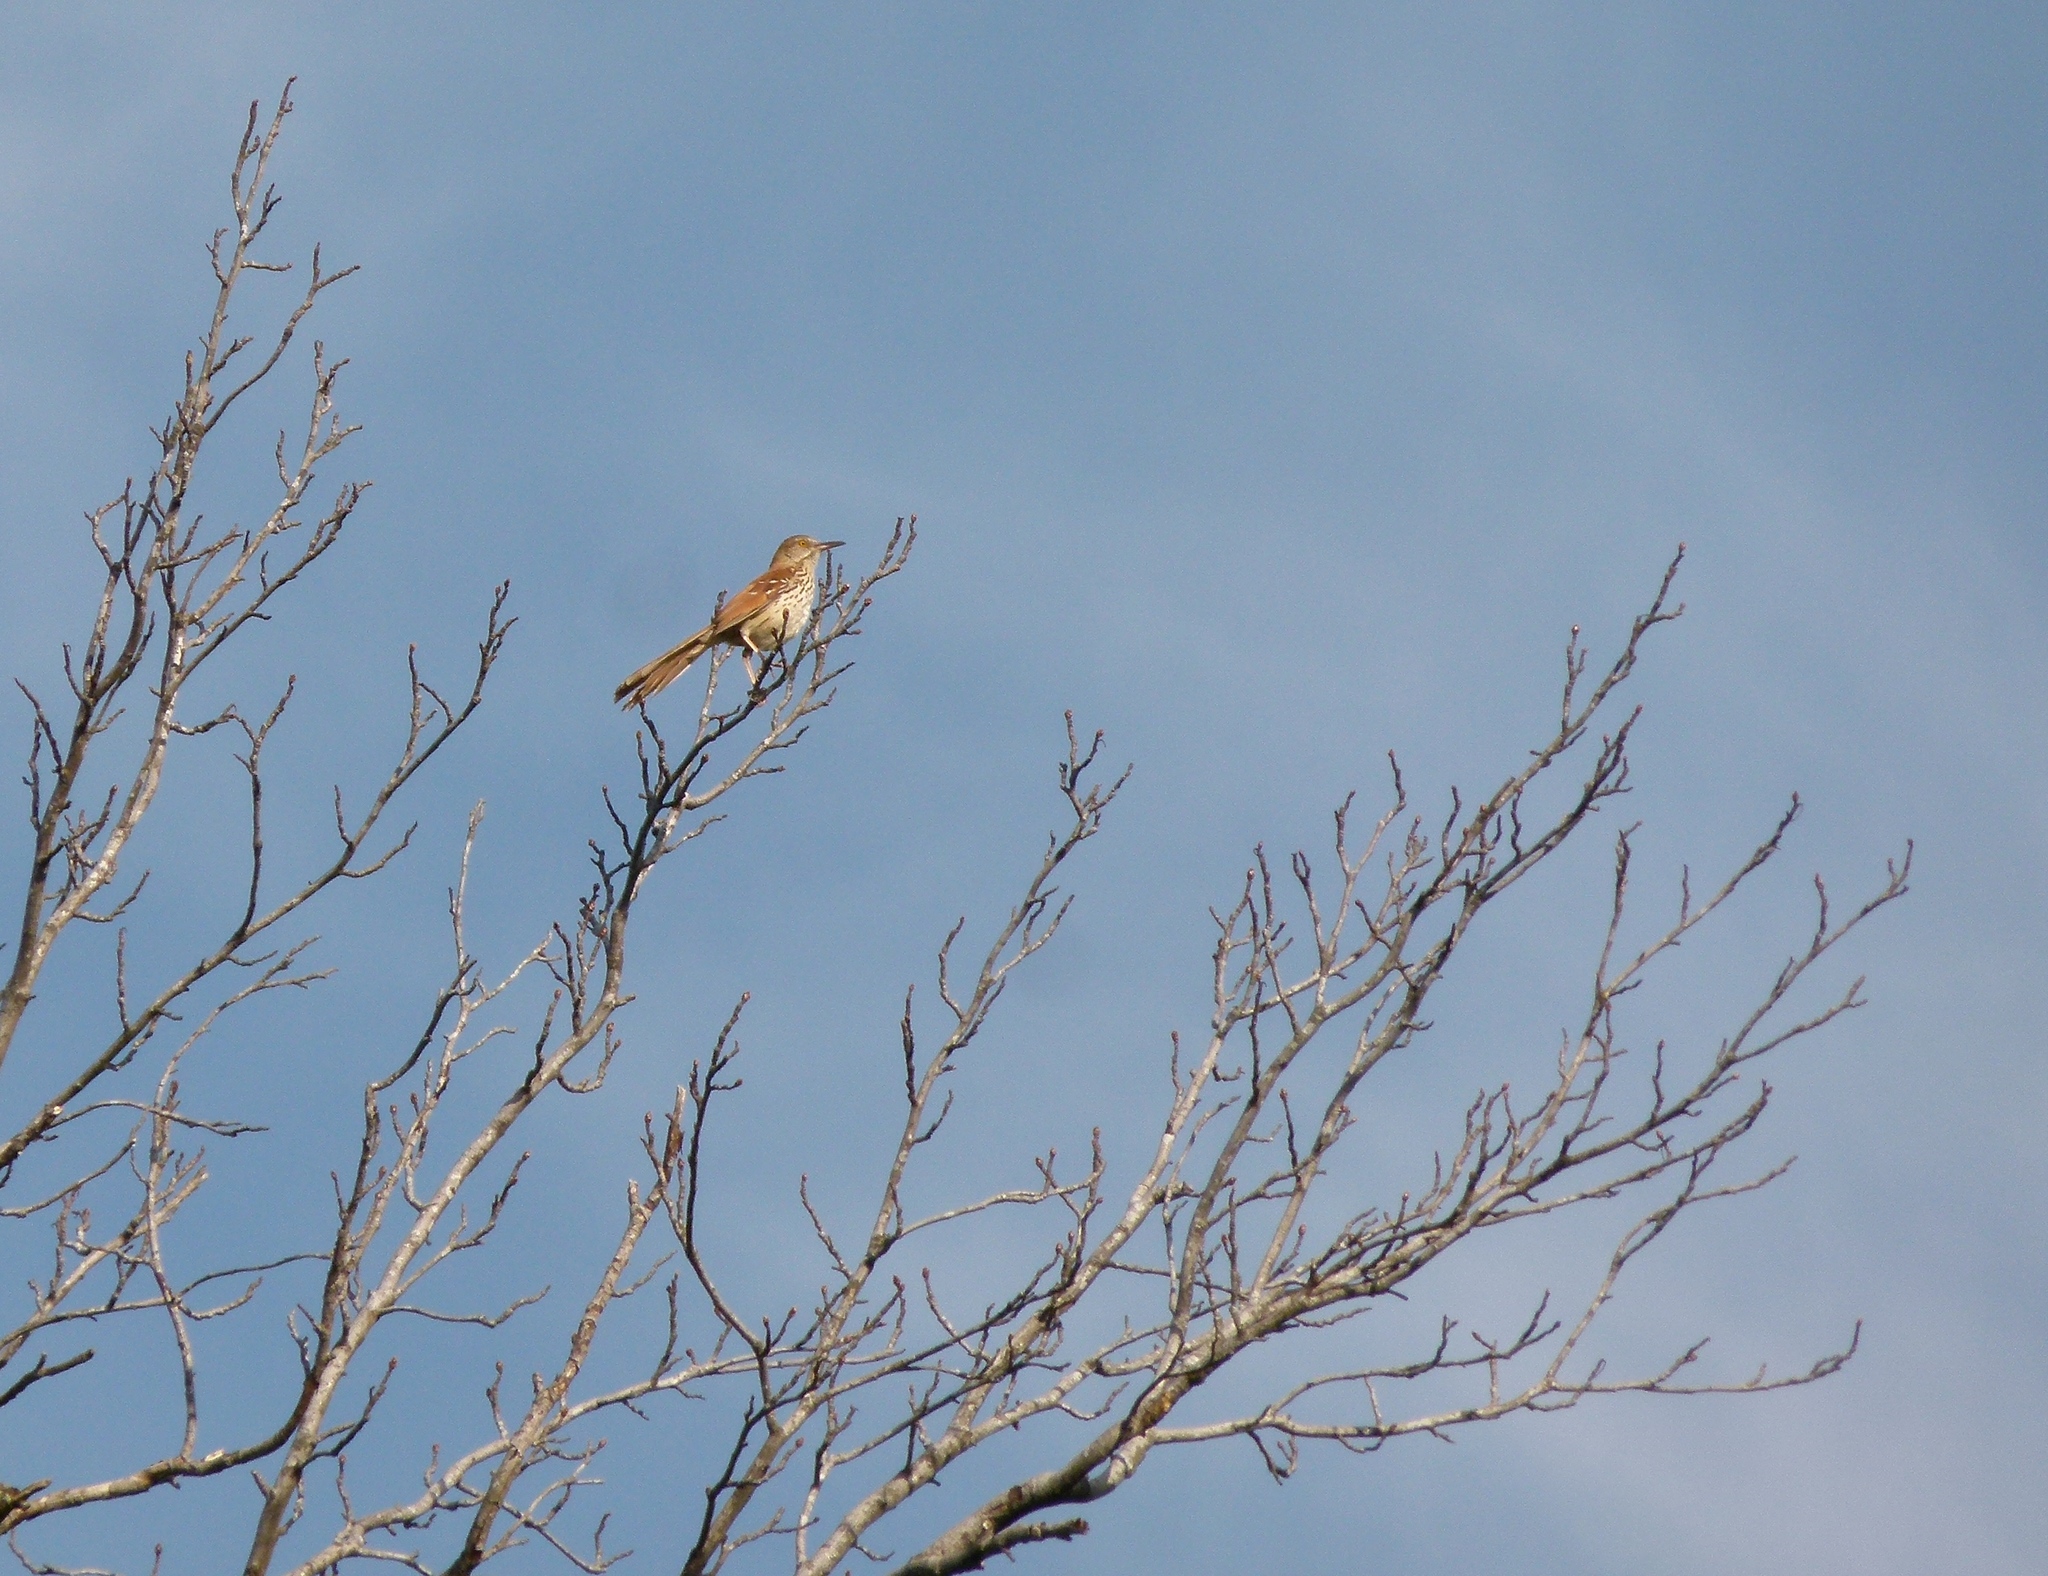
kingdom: Animalia
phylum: Chordata
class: Aves
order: Passeriformes
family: Mimidae
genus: Toxostoma
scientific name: Toxostoma rufum
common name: Brown thrasher
